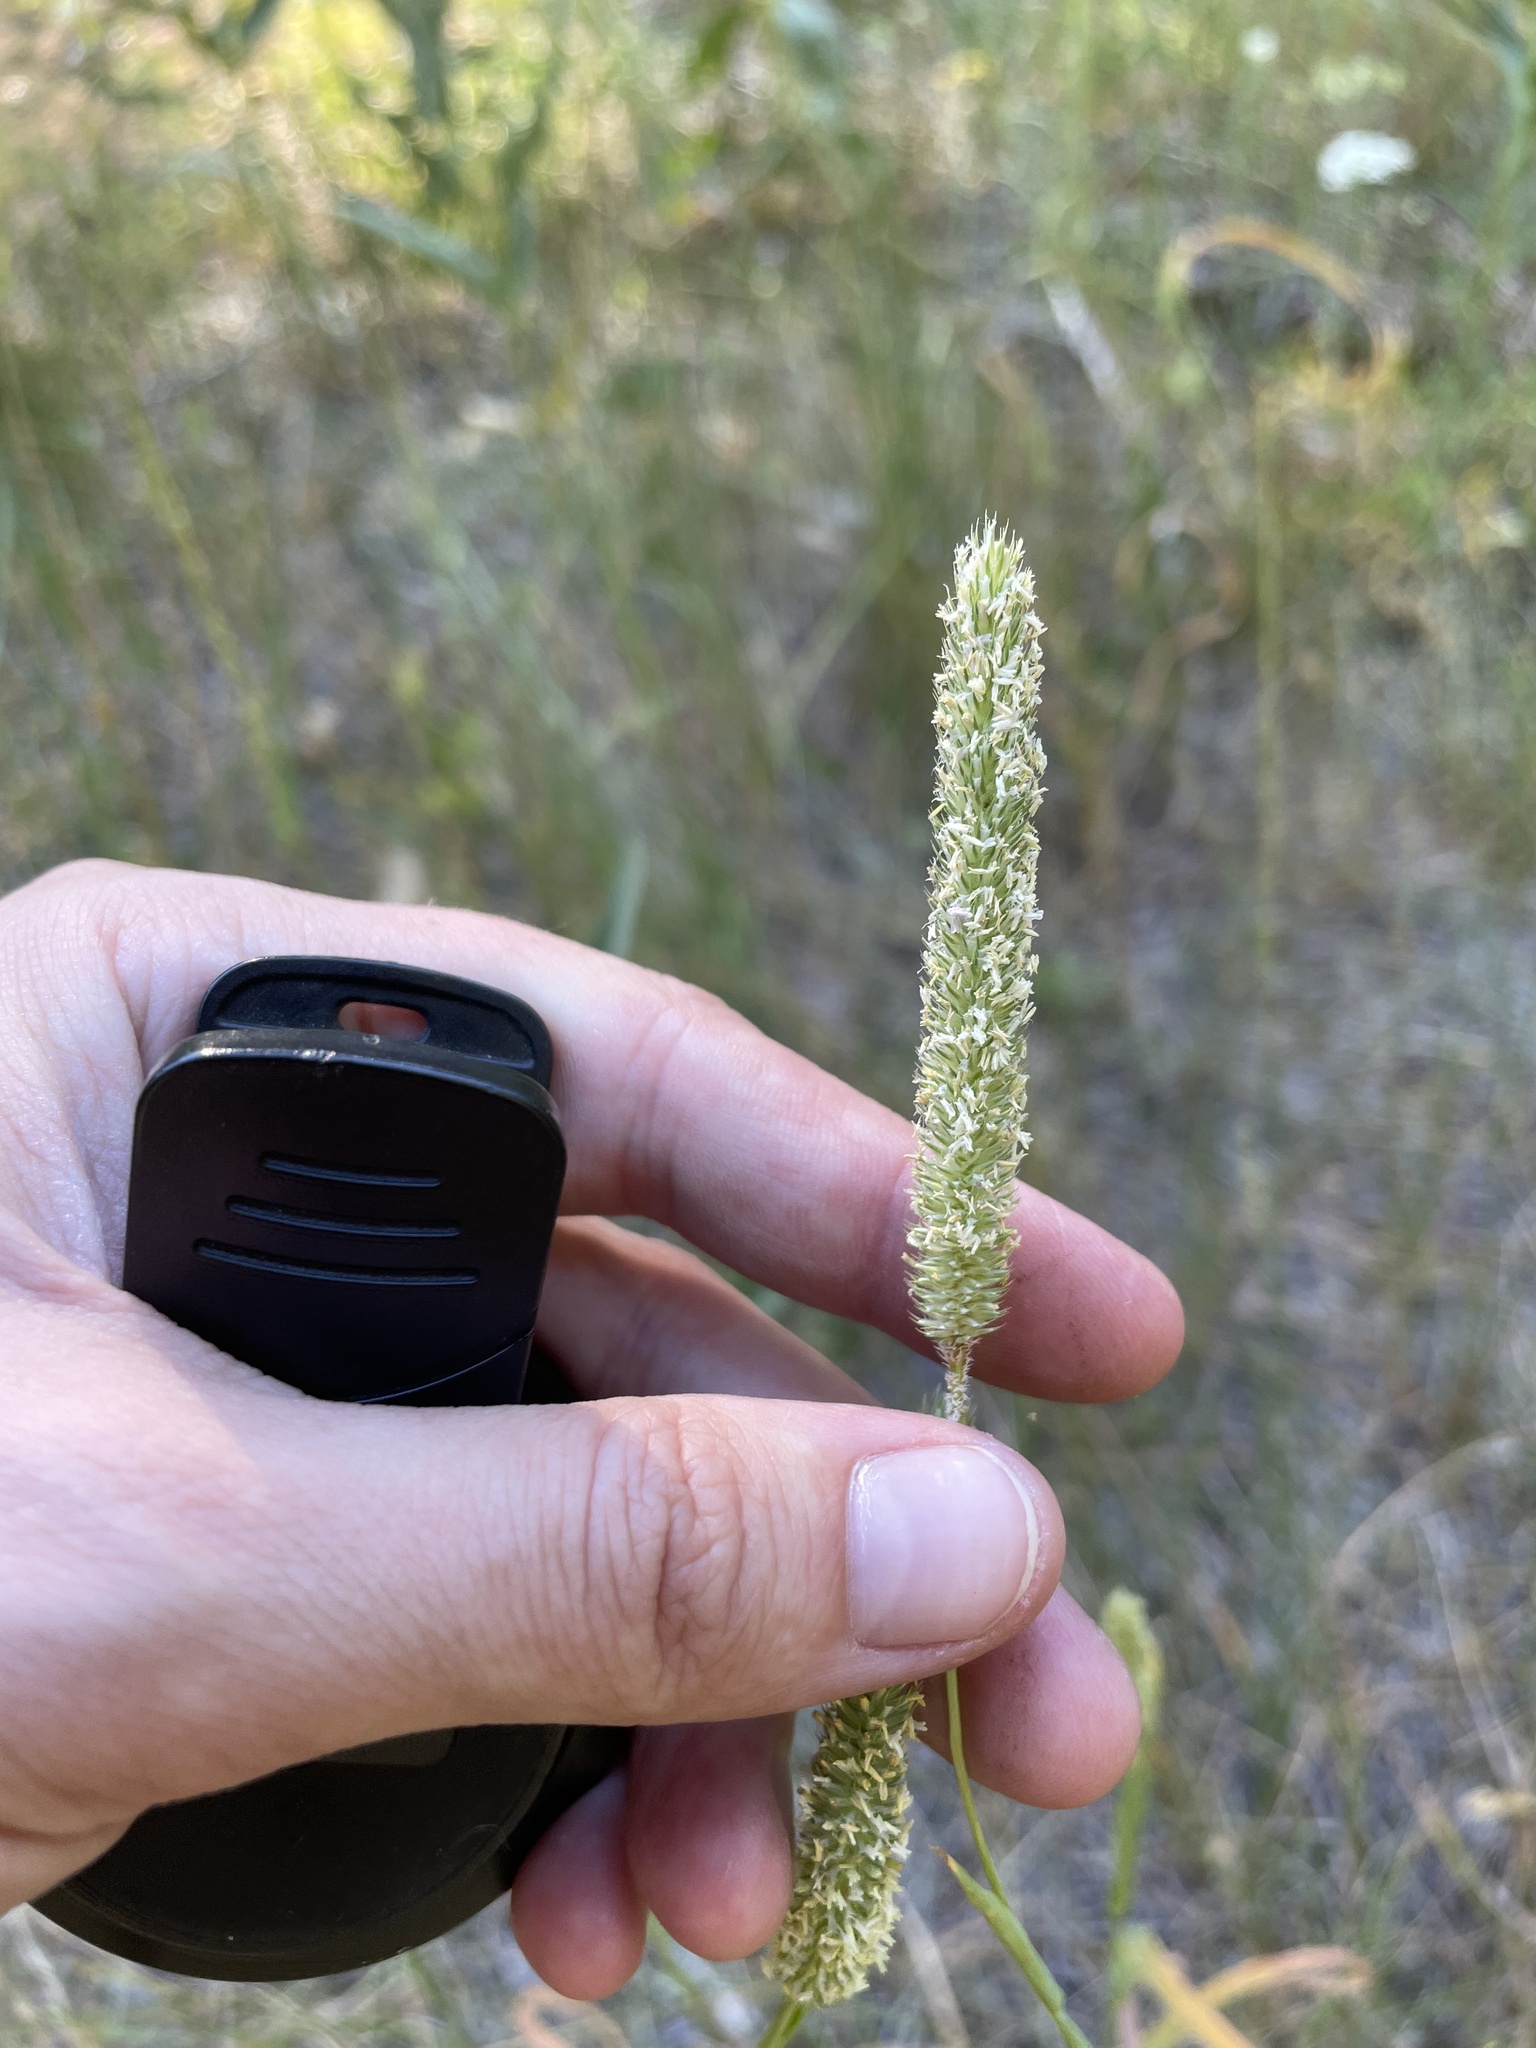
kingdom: Plantae
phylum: Tracheophyta
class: Liliopsida
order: Poales
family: Poaceae
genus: Phleum
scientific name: Phleum pratense
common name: Timothy grass
